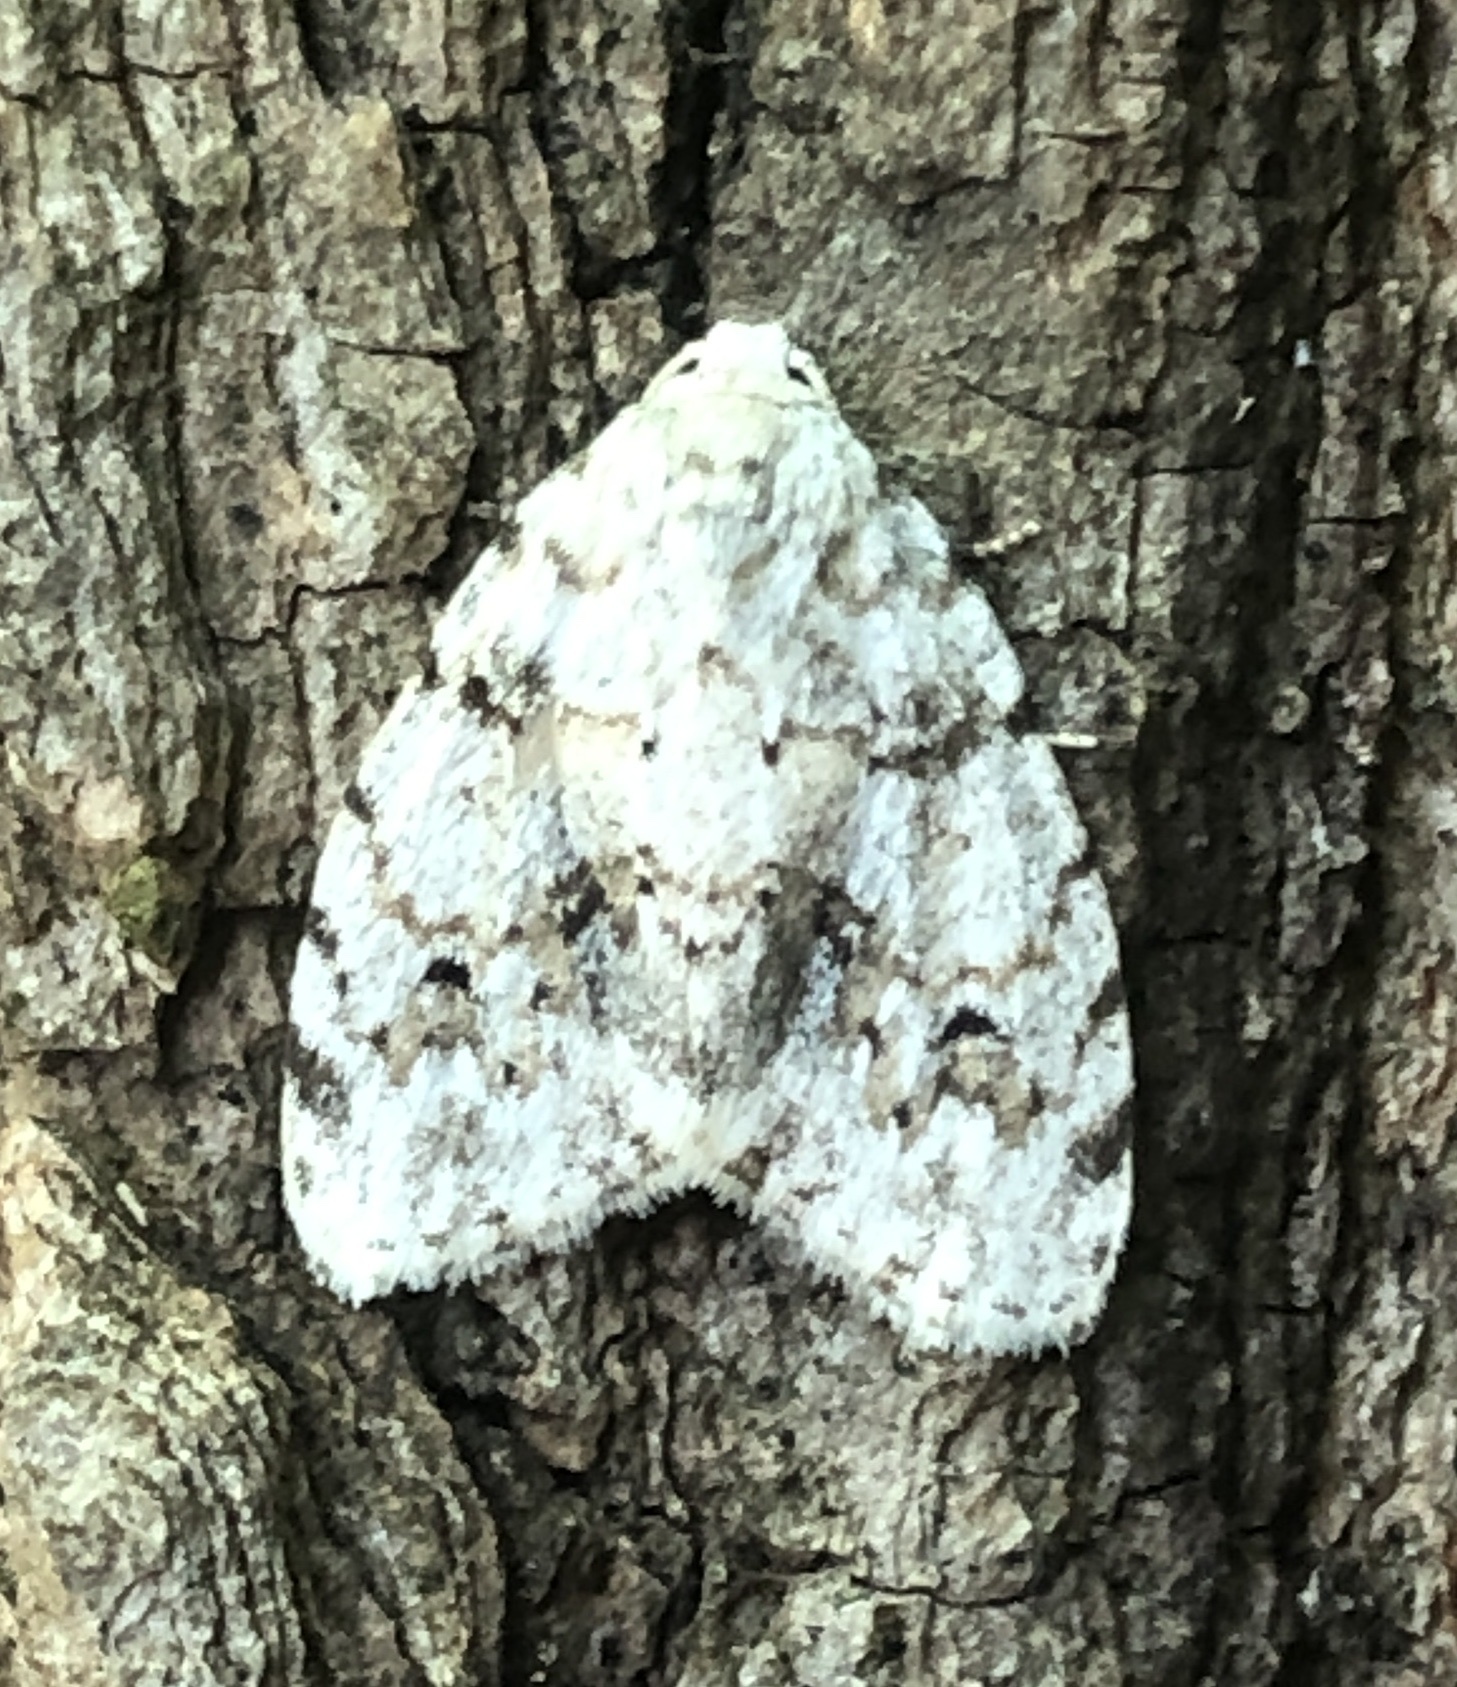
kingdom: Animalia
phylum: Arthropoda
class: Insecta
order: Lepidoptera
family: Erebidae
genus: Clemensia
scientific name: Clemensia albata
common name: Little white lichen moth
